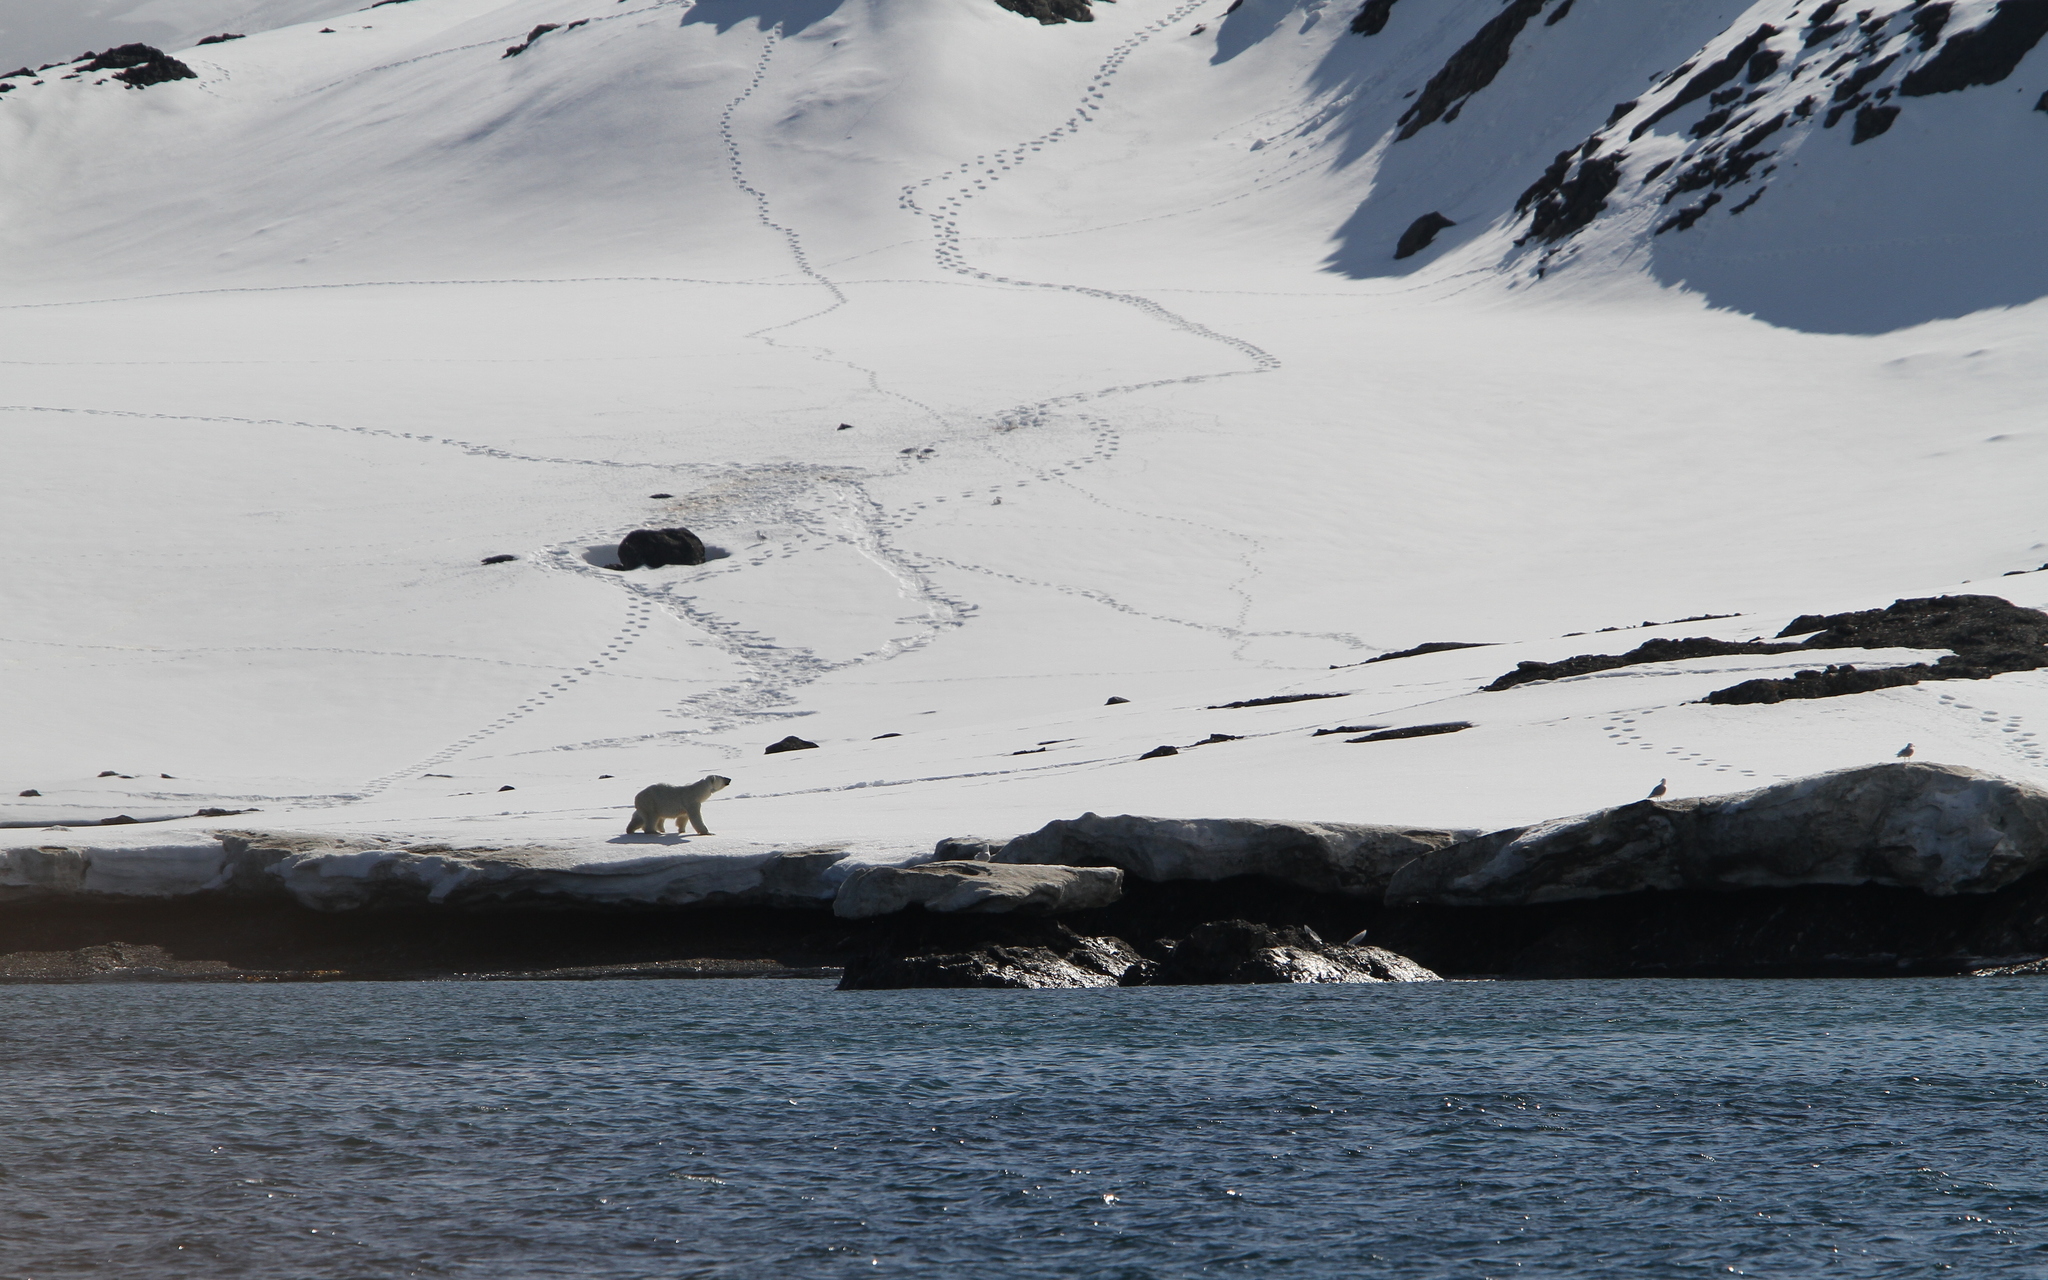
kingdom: Animalia
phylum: Chordata
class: Mammalia
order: Carnivora
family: Ursidae
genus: Ursus
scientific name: Ursus maritimus
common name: Polar bear
